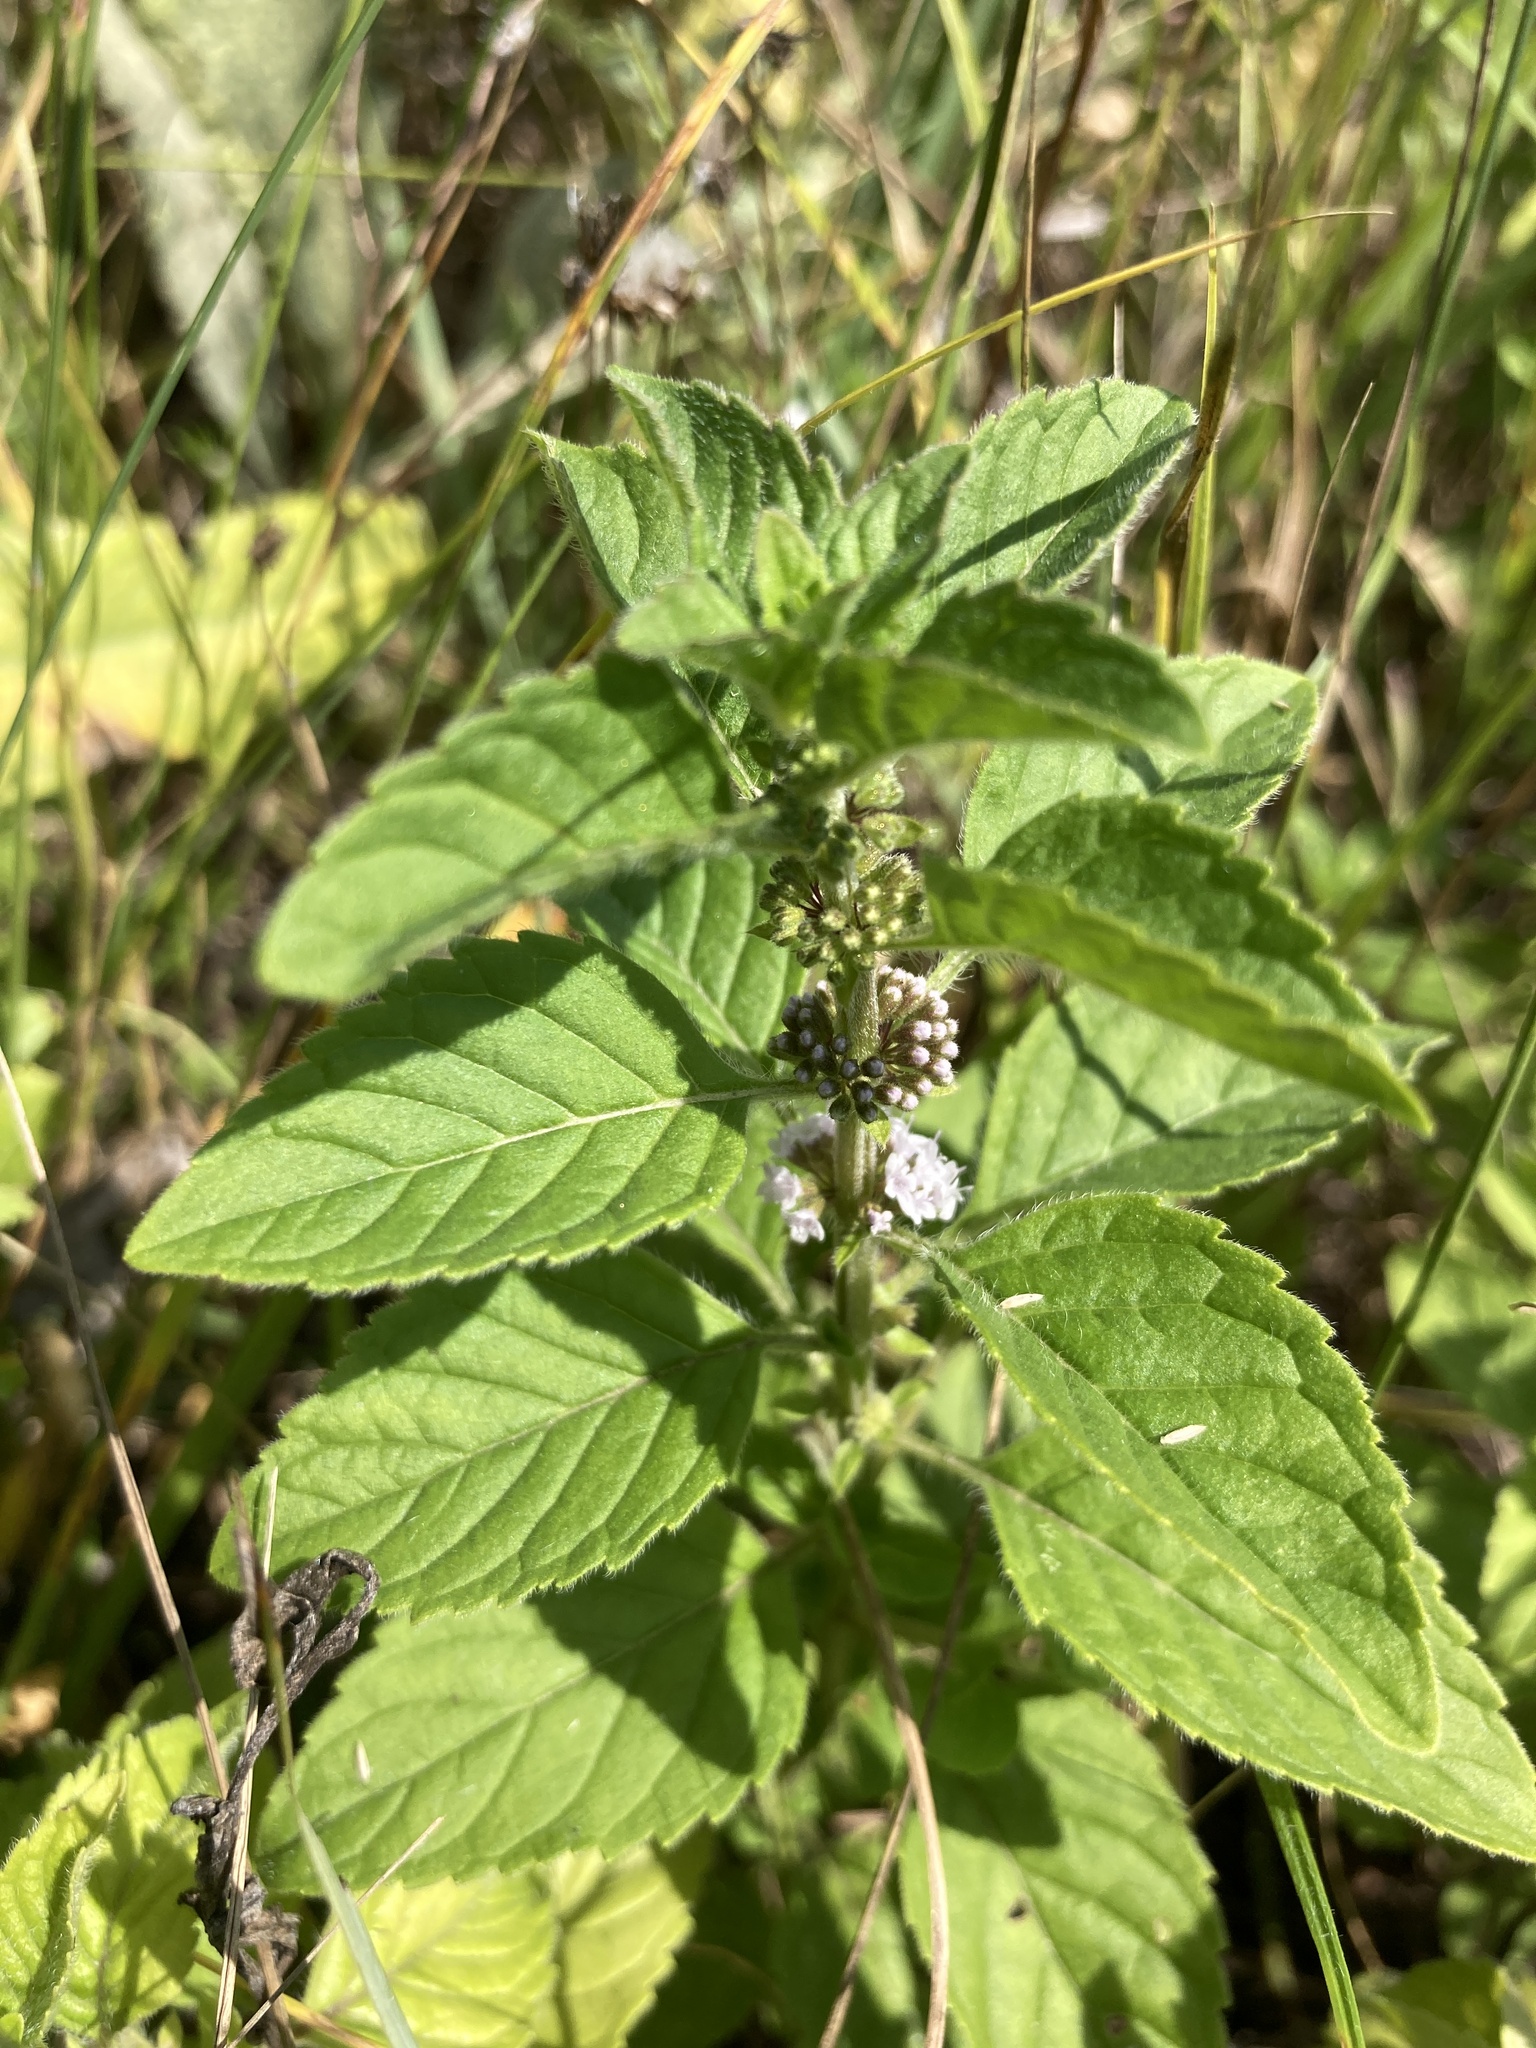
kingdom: Plantae
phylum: Tracheophyta
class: Magnoliopsida
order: Lamiales
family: Lamiaceae
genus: Mentha
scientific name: Mentha arvensis
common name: Corn mint
